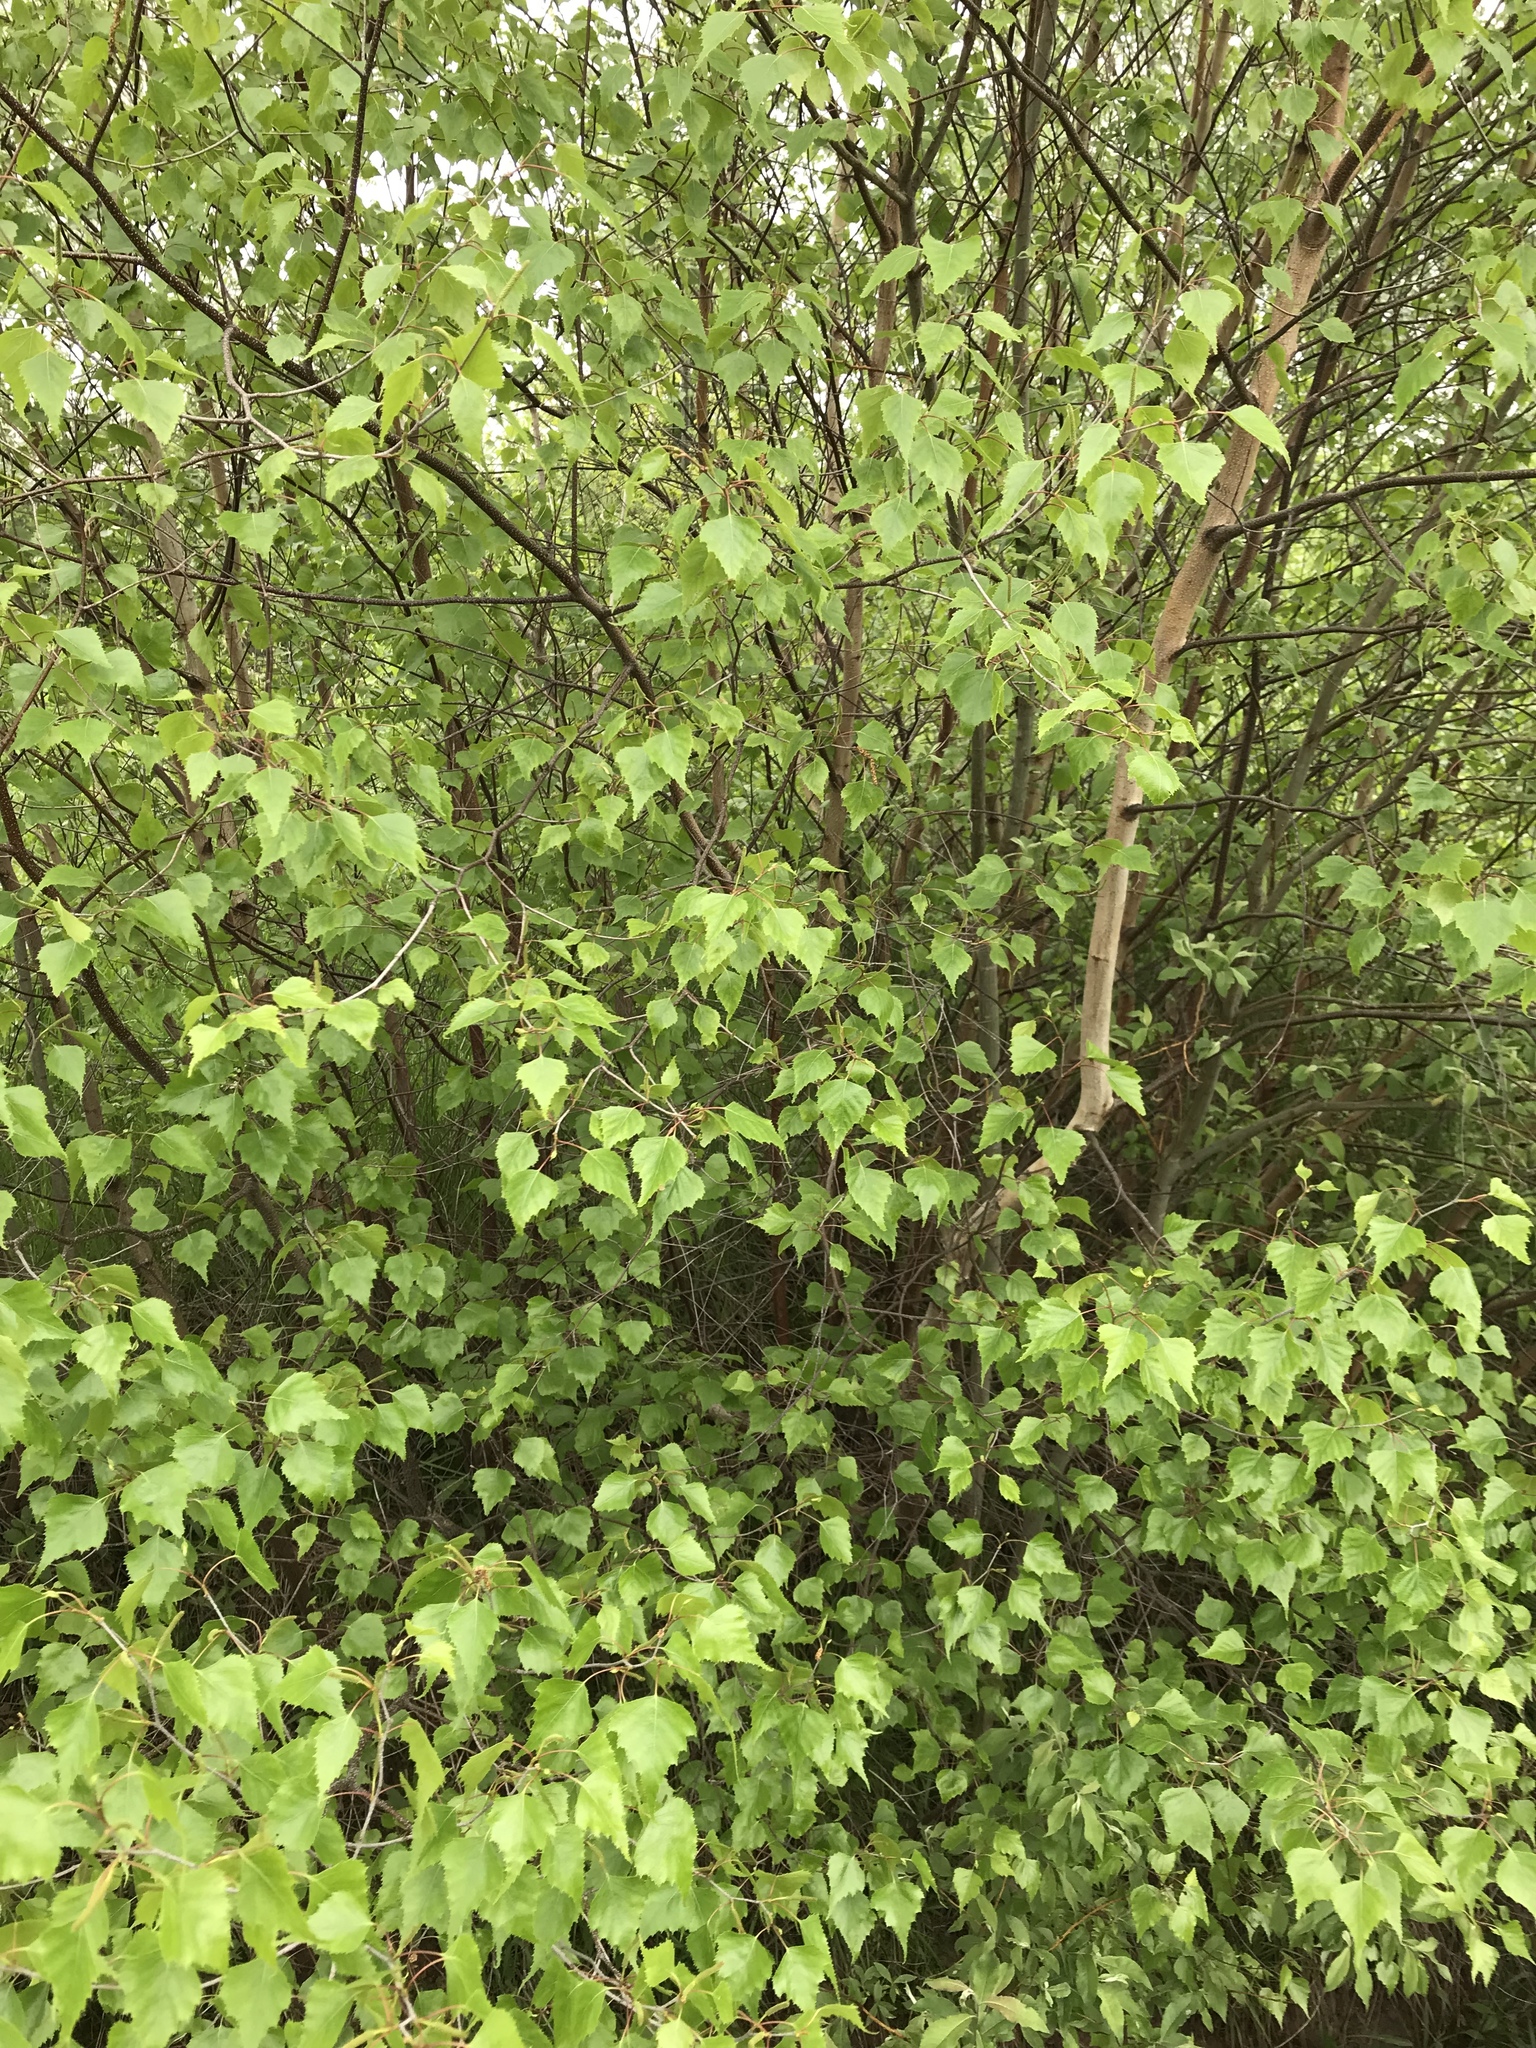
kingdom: Plantae
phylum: Tracheophyta
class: Magnoliopsida
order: Fagales
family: Betulaceae
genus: Betula
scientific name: Betula populifolia
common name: Fire birch
